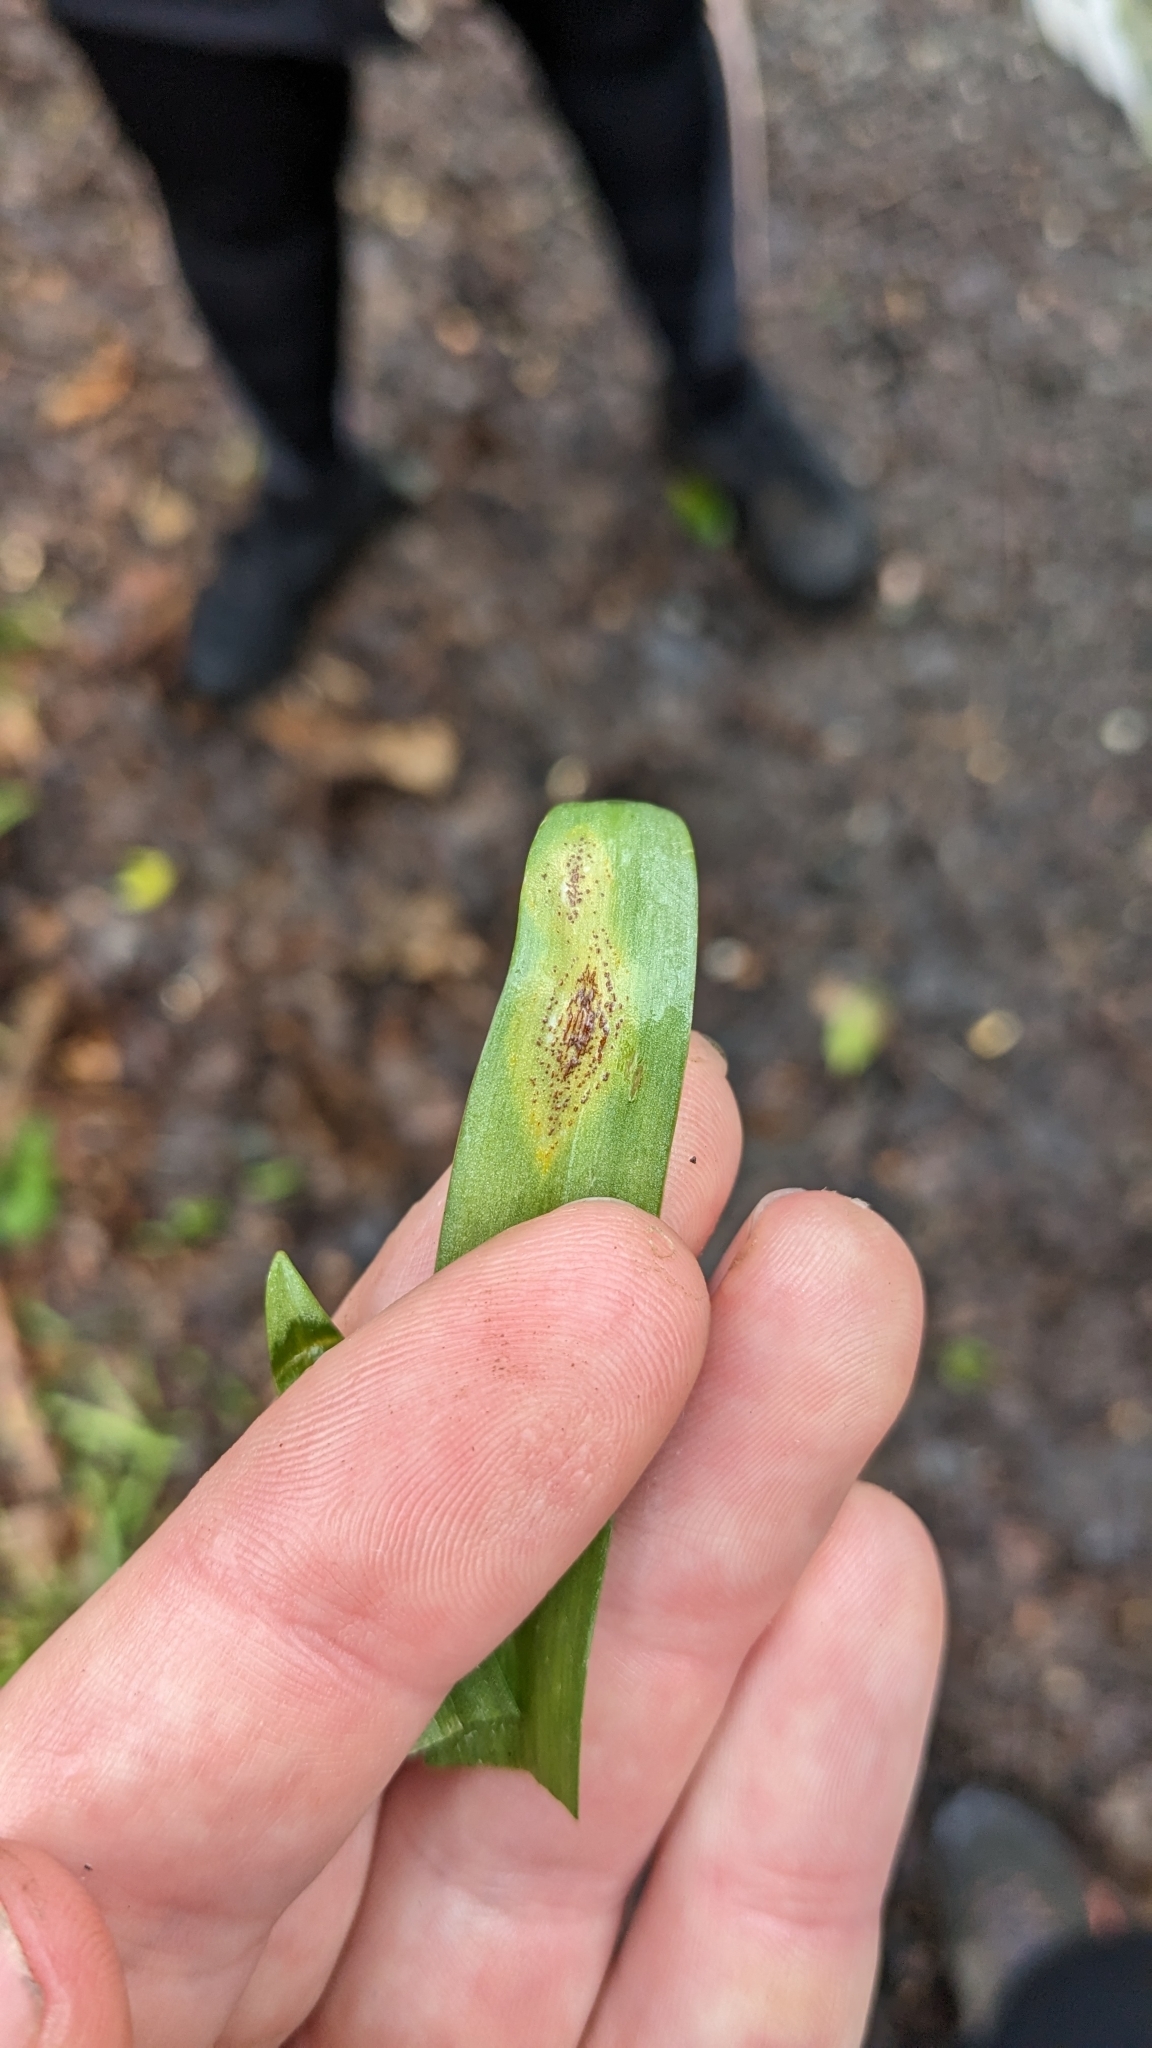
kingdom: Fungi
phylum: Basidiomycota
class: Pucciniomycetes
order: Pucciniales
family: Pucciniaceae
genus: Uromyces
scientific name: Uromyces hyacinthi
